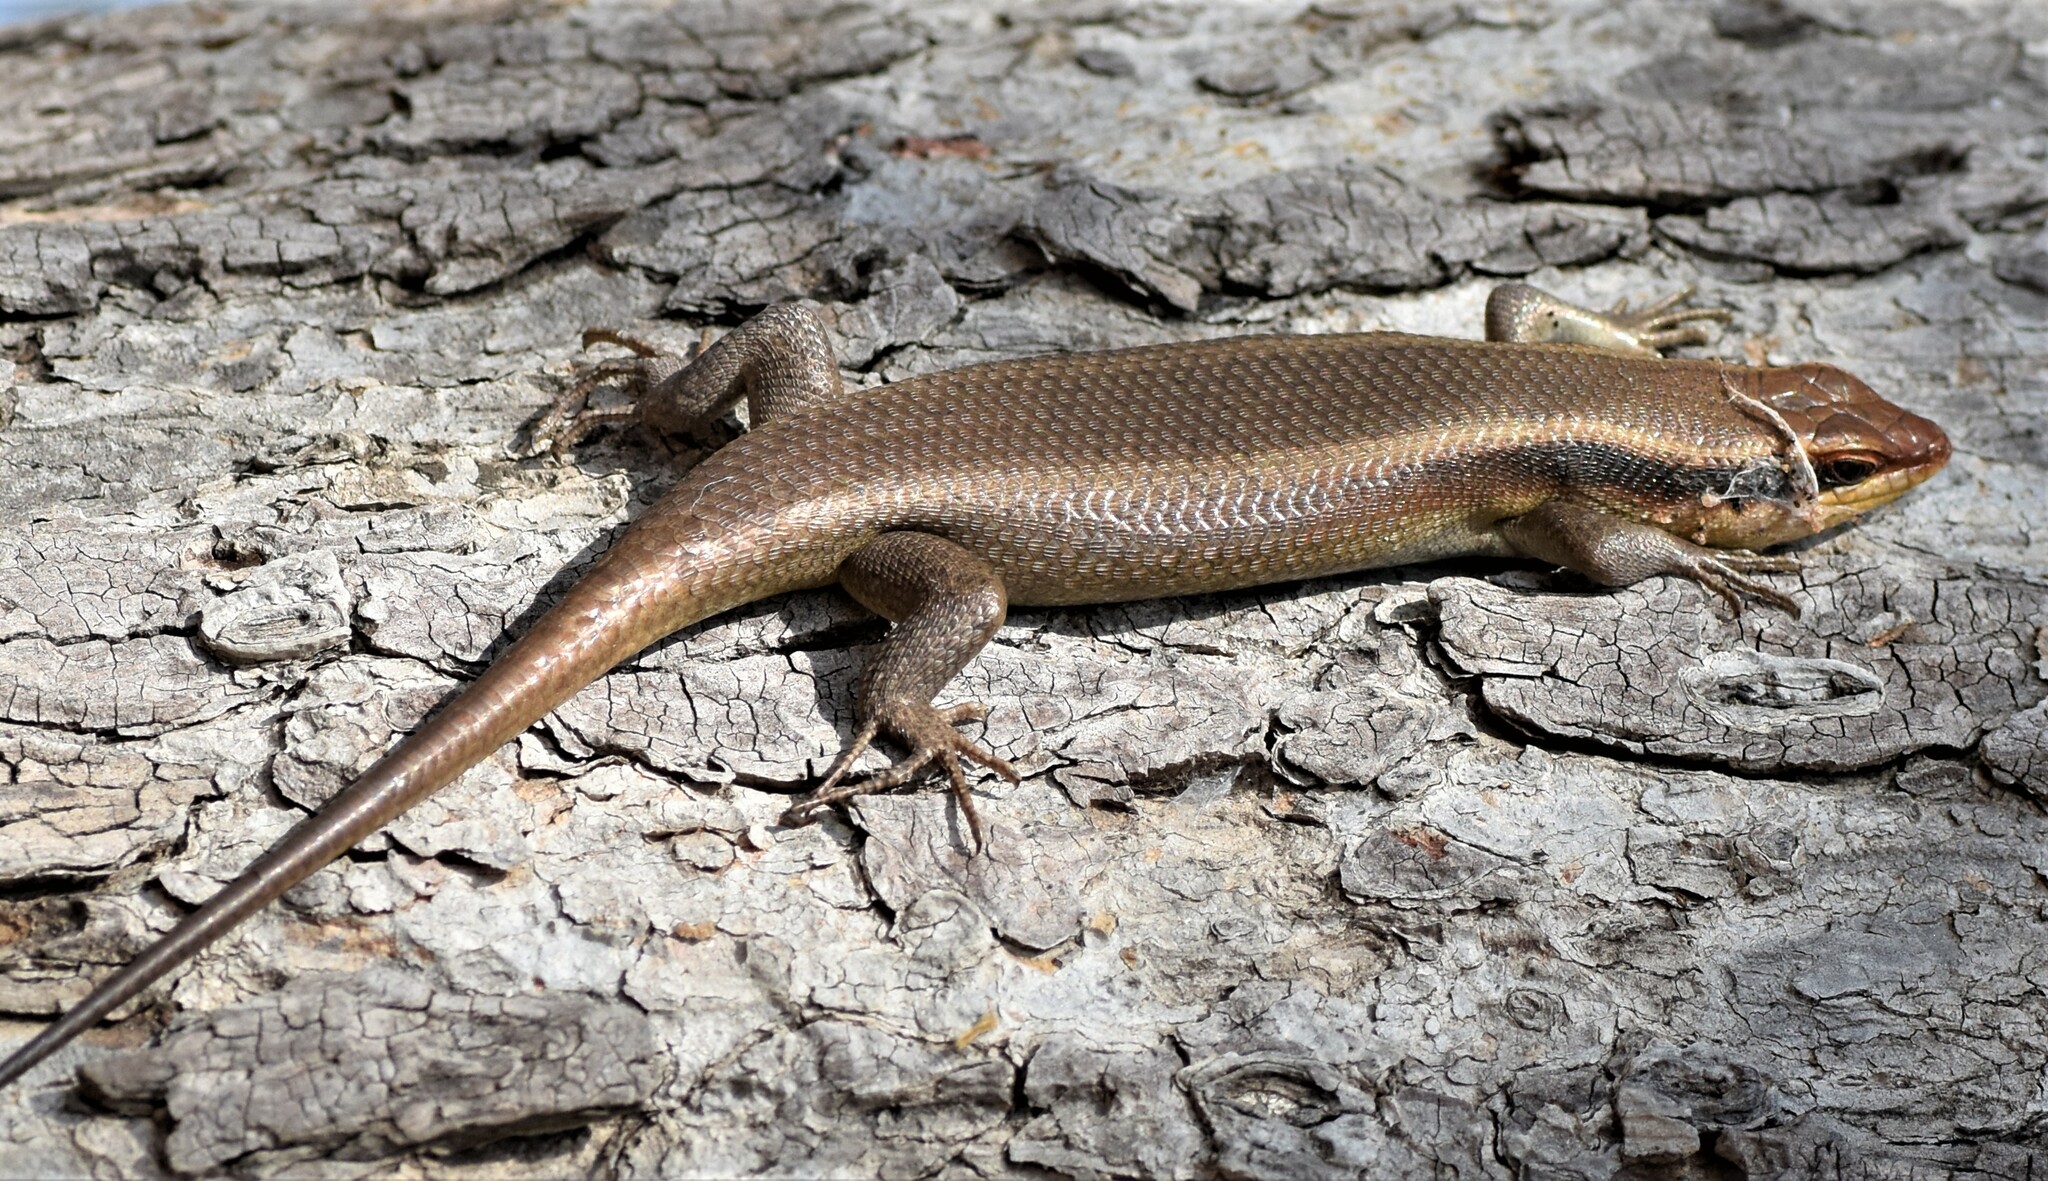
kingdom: Animalia
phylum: Chordata
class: Squamata
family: Scincidae
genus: Trachylepis
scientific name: Trachylepis wahlbergii
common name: Wahlberg’s striped skink
